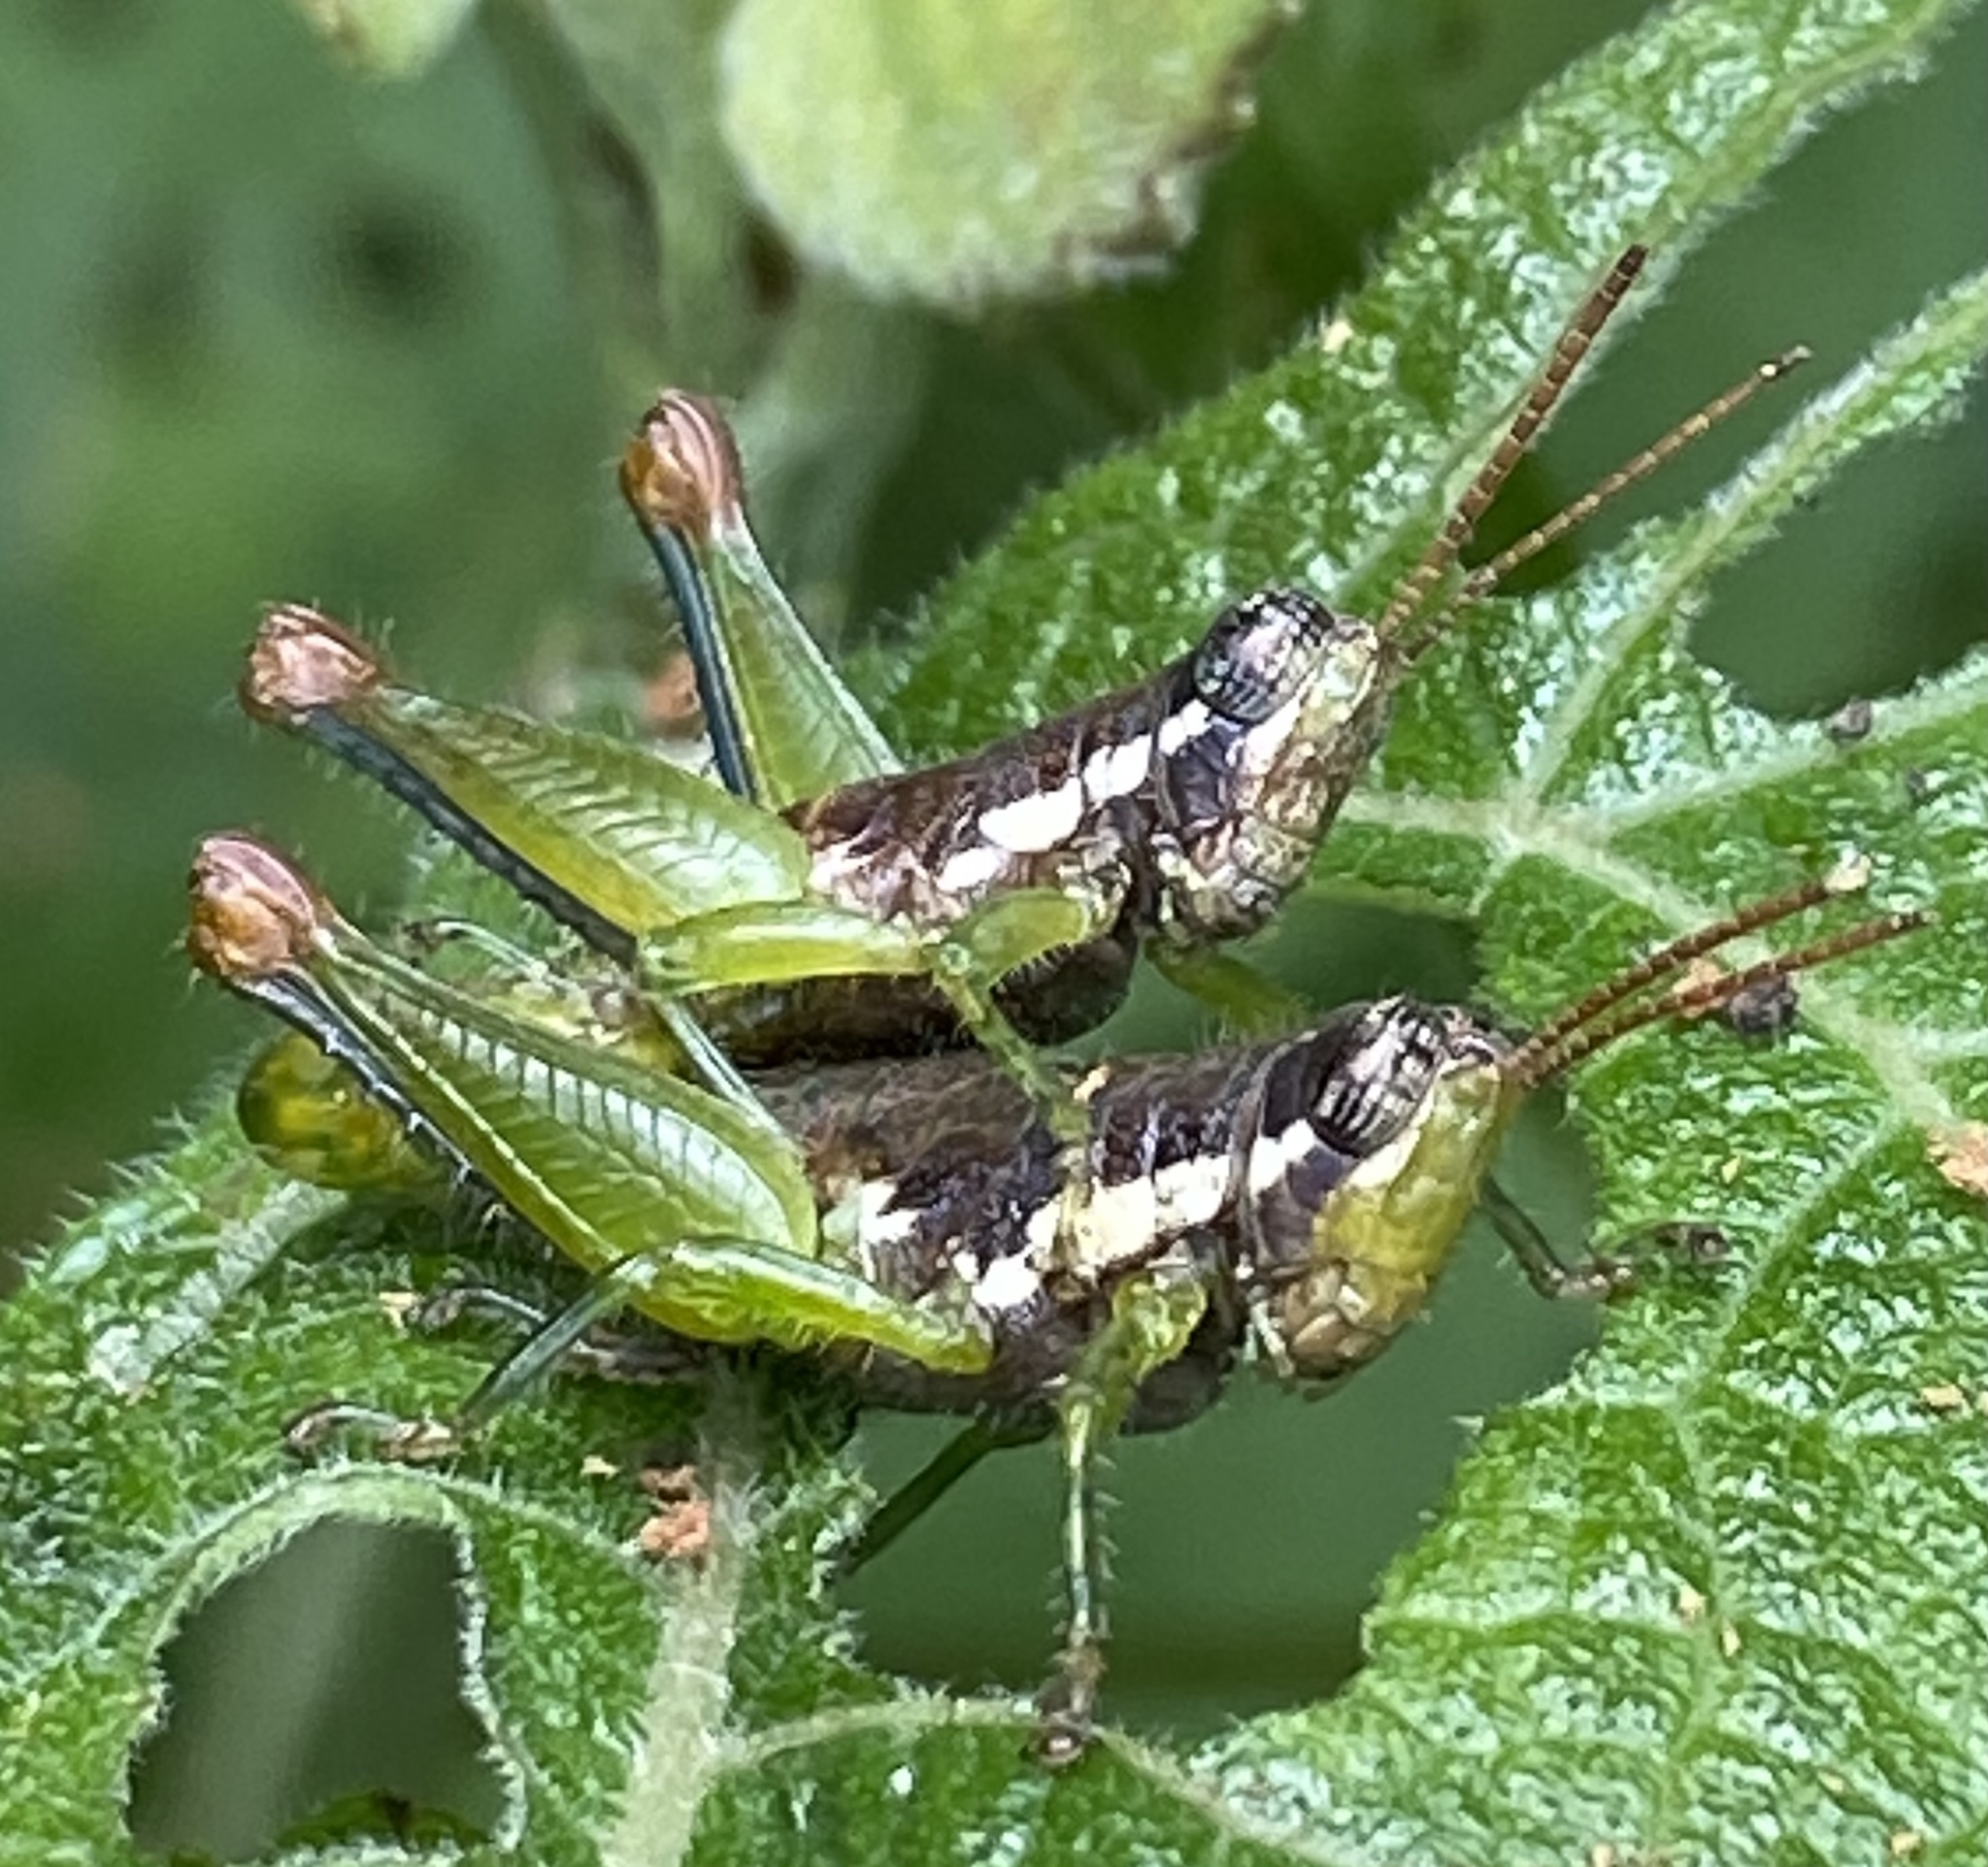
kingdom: Animalia
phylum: Arthropoda
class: Insecta
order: Orthoptera
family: Acrididae
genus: Sitalces
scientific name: Sitalces volxemi
